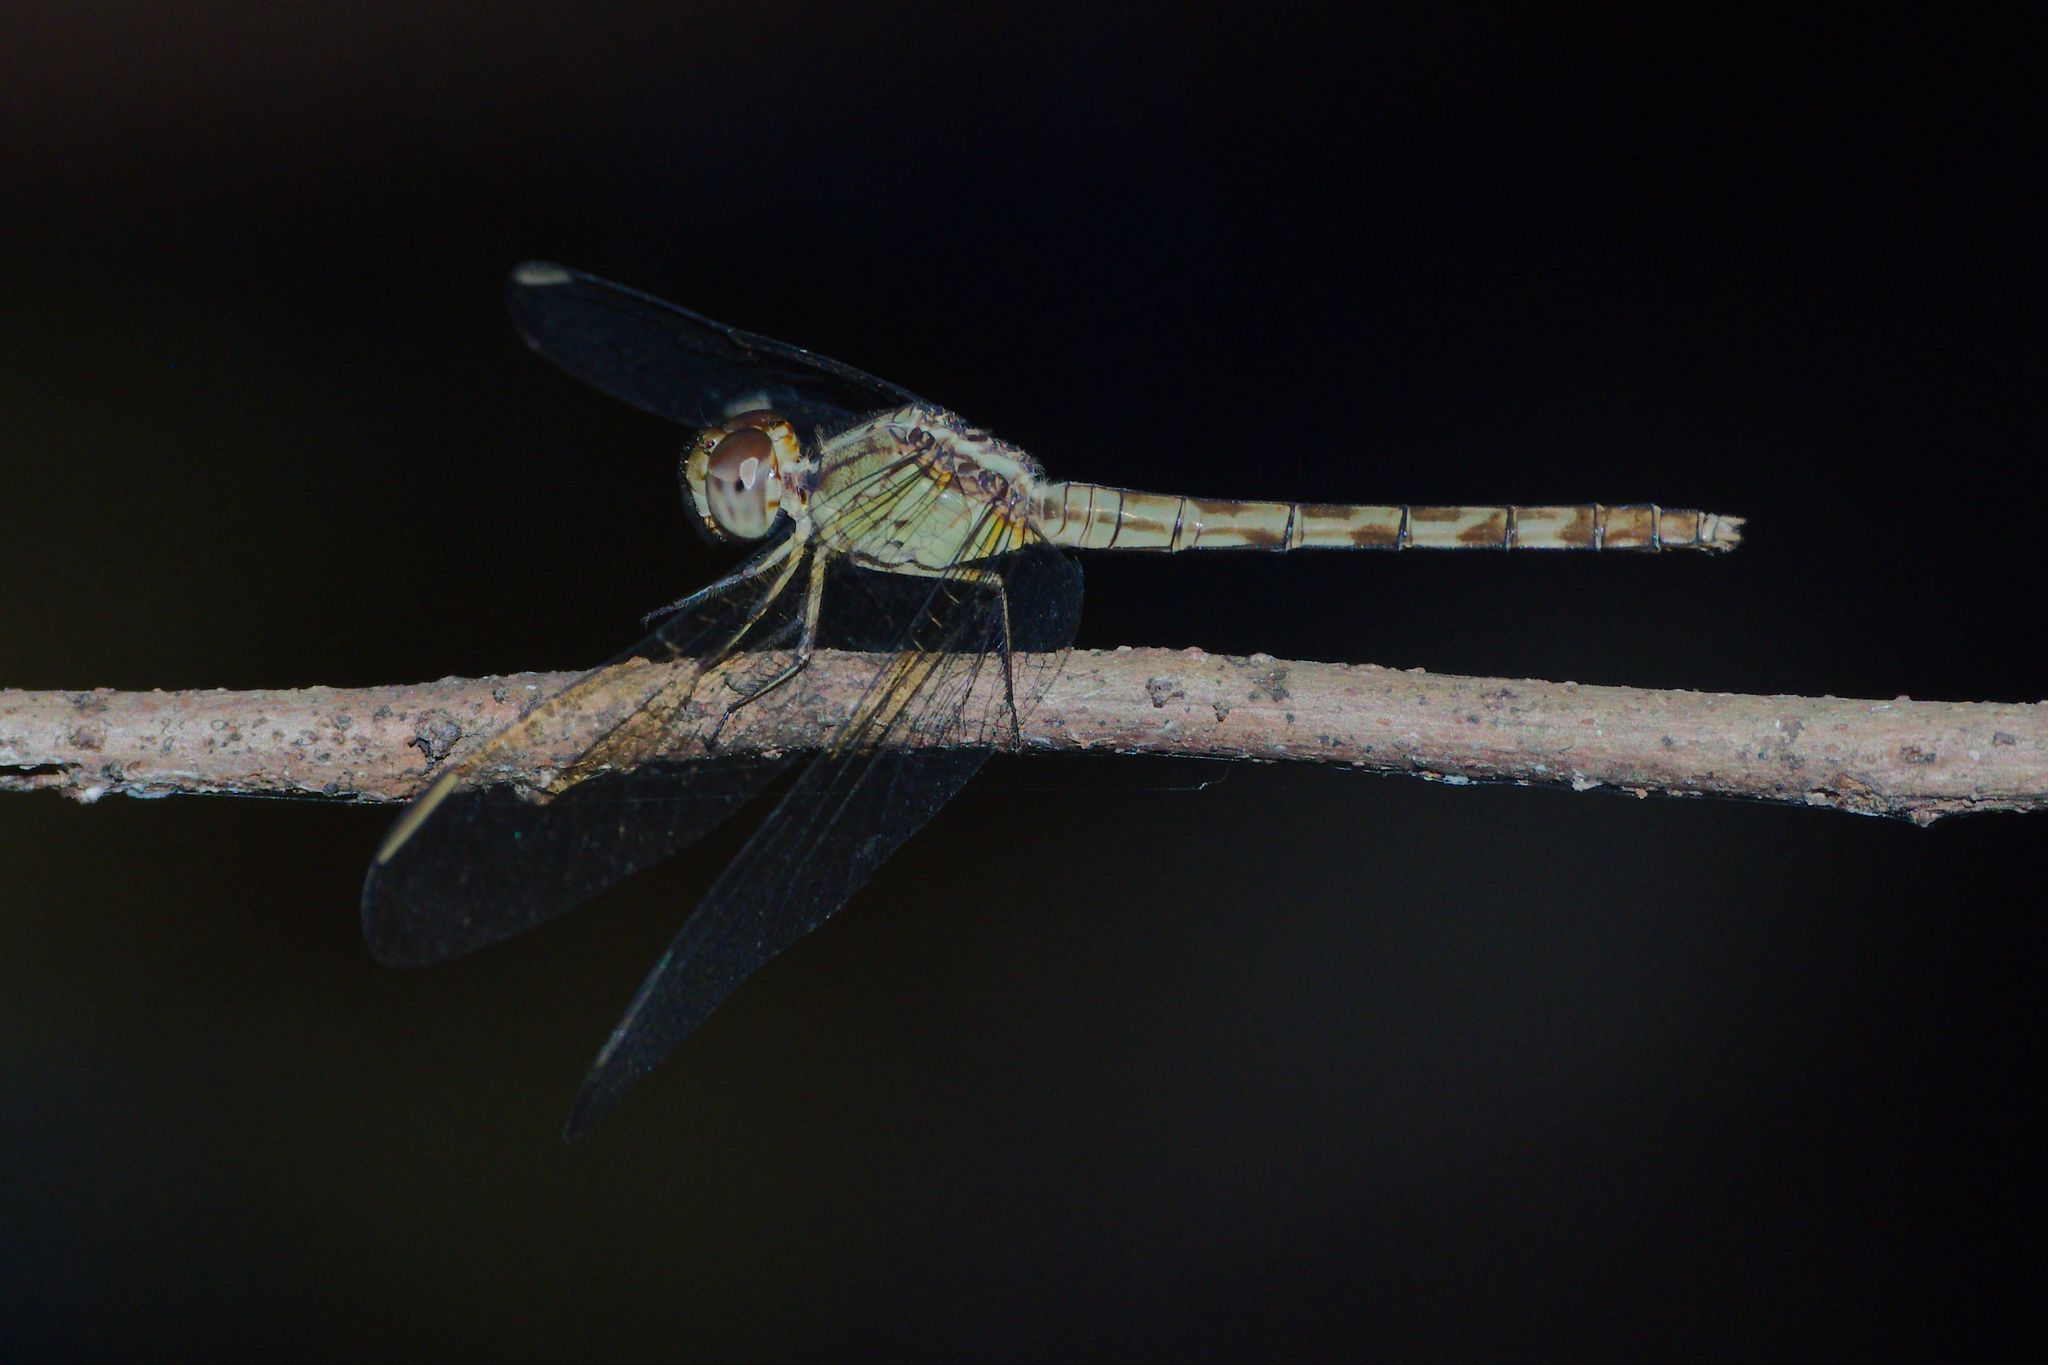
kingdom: Animalia
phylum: Arthropoda
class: Insecta
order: Odonata
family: Libellulidae
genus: Erythrodiplax
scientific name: Erythrodiplax umbrata
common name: Band-winged dragonlet
